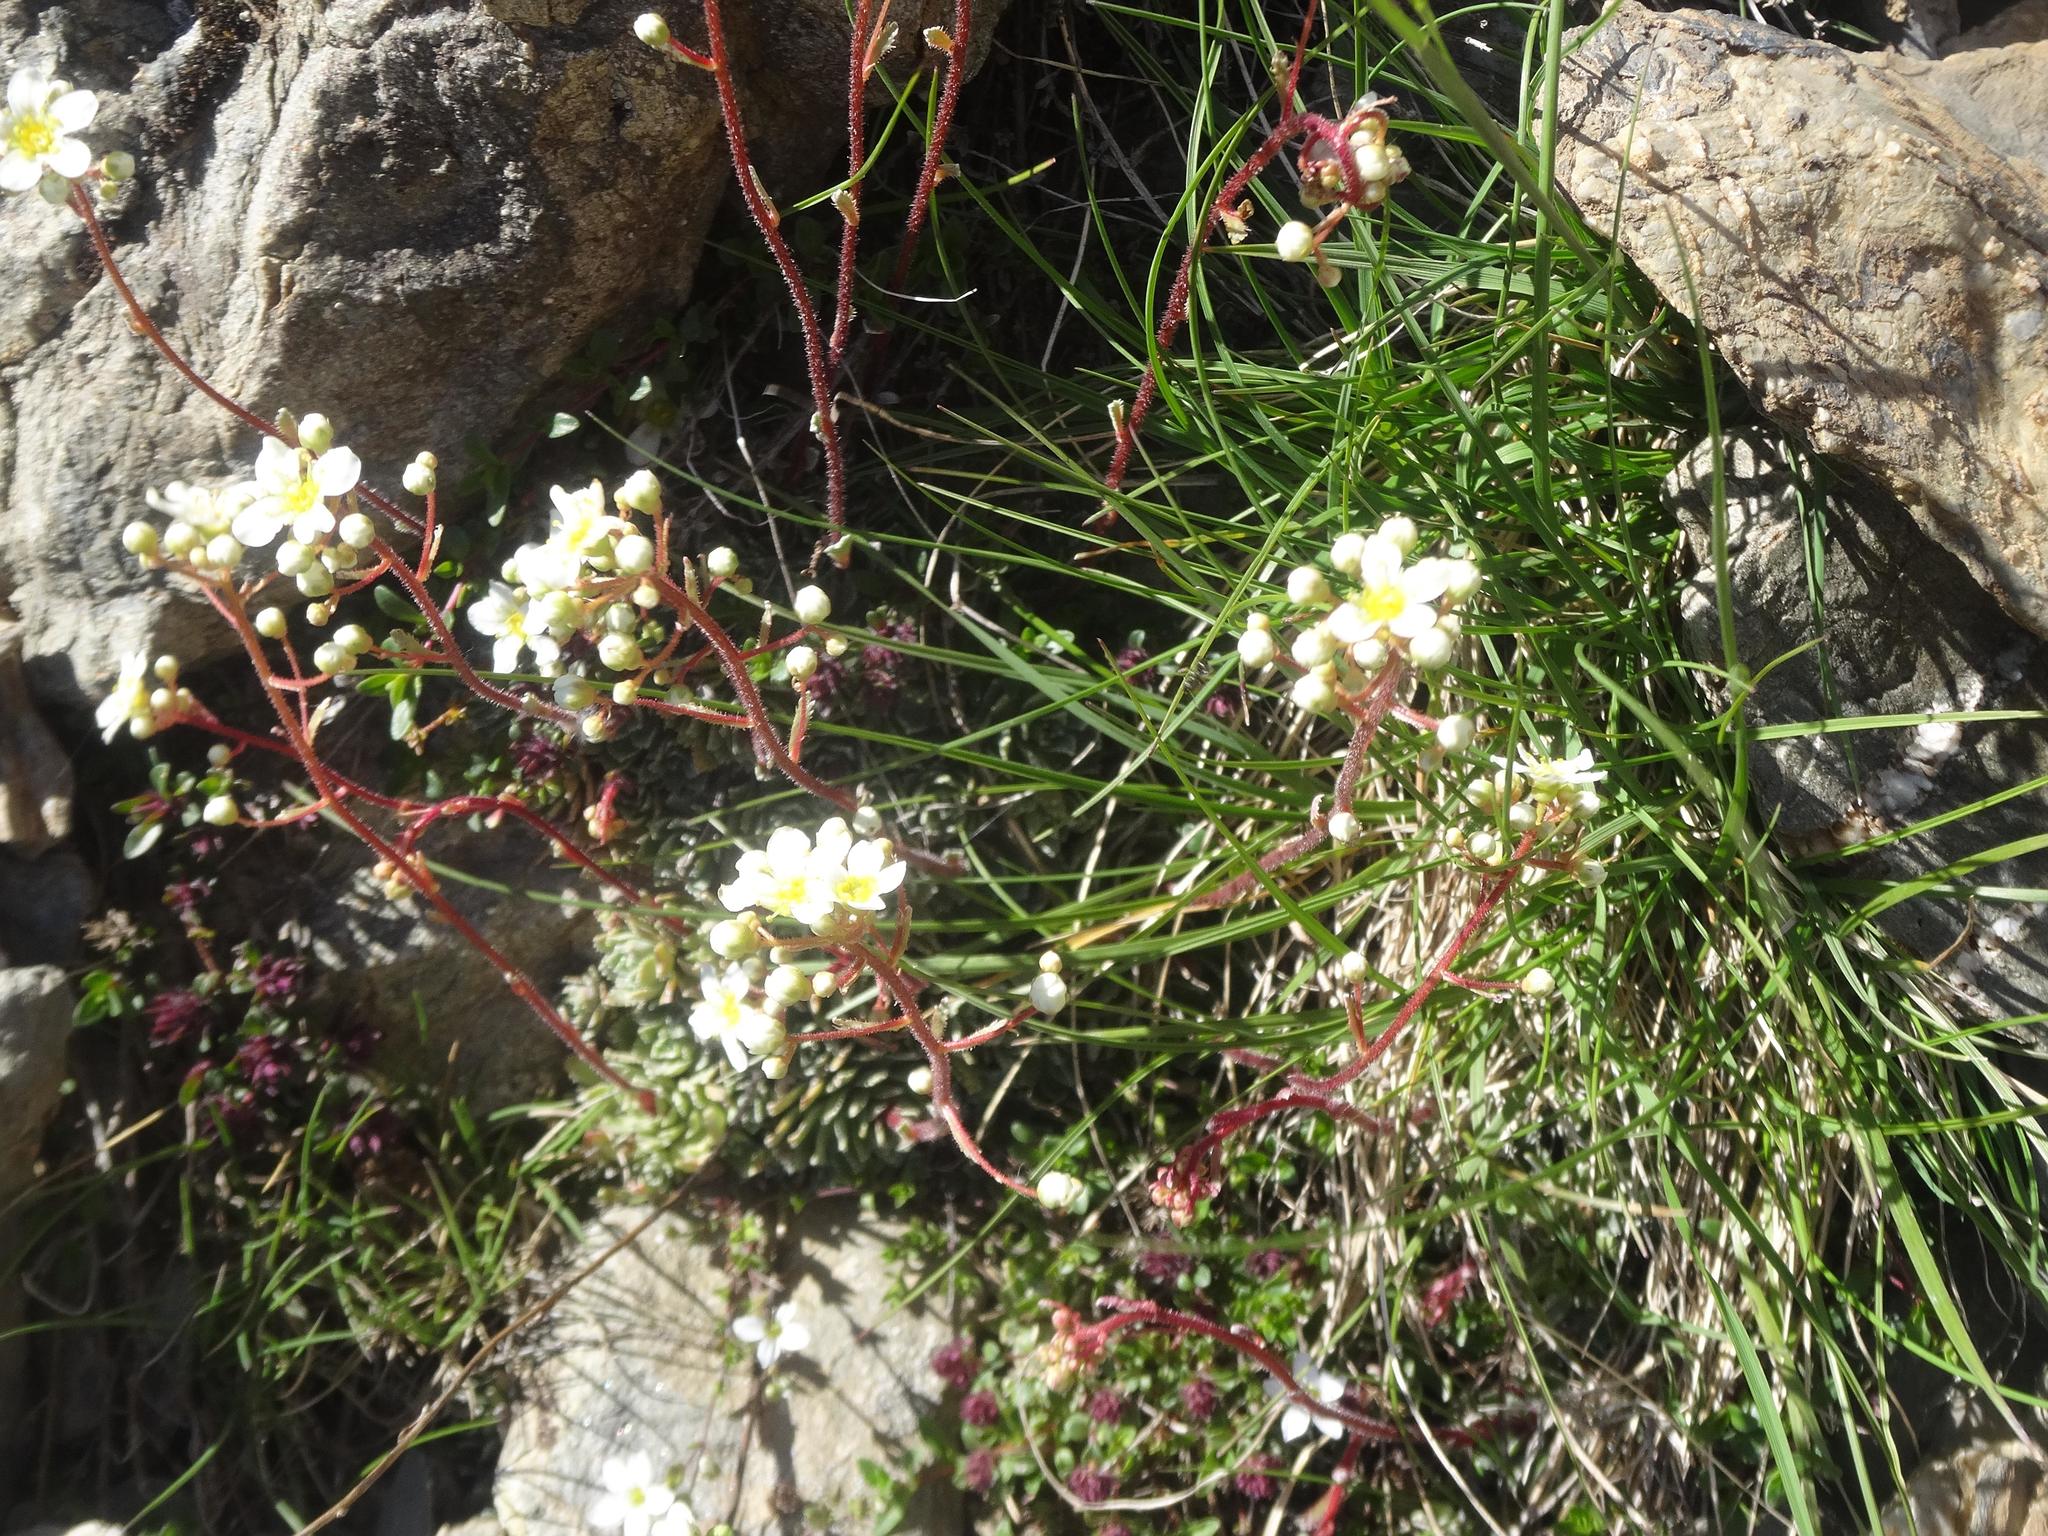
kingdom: Plantae
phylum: Tracheophyta
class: Magnoliopsida
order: Saxifragales
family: Saxifragaceae
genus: Saxifraga
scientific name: Saxifraga paniculata
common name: Livelong saxifrage
